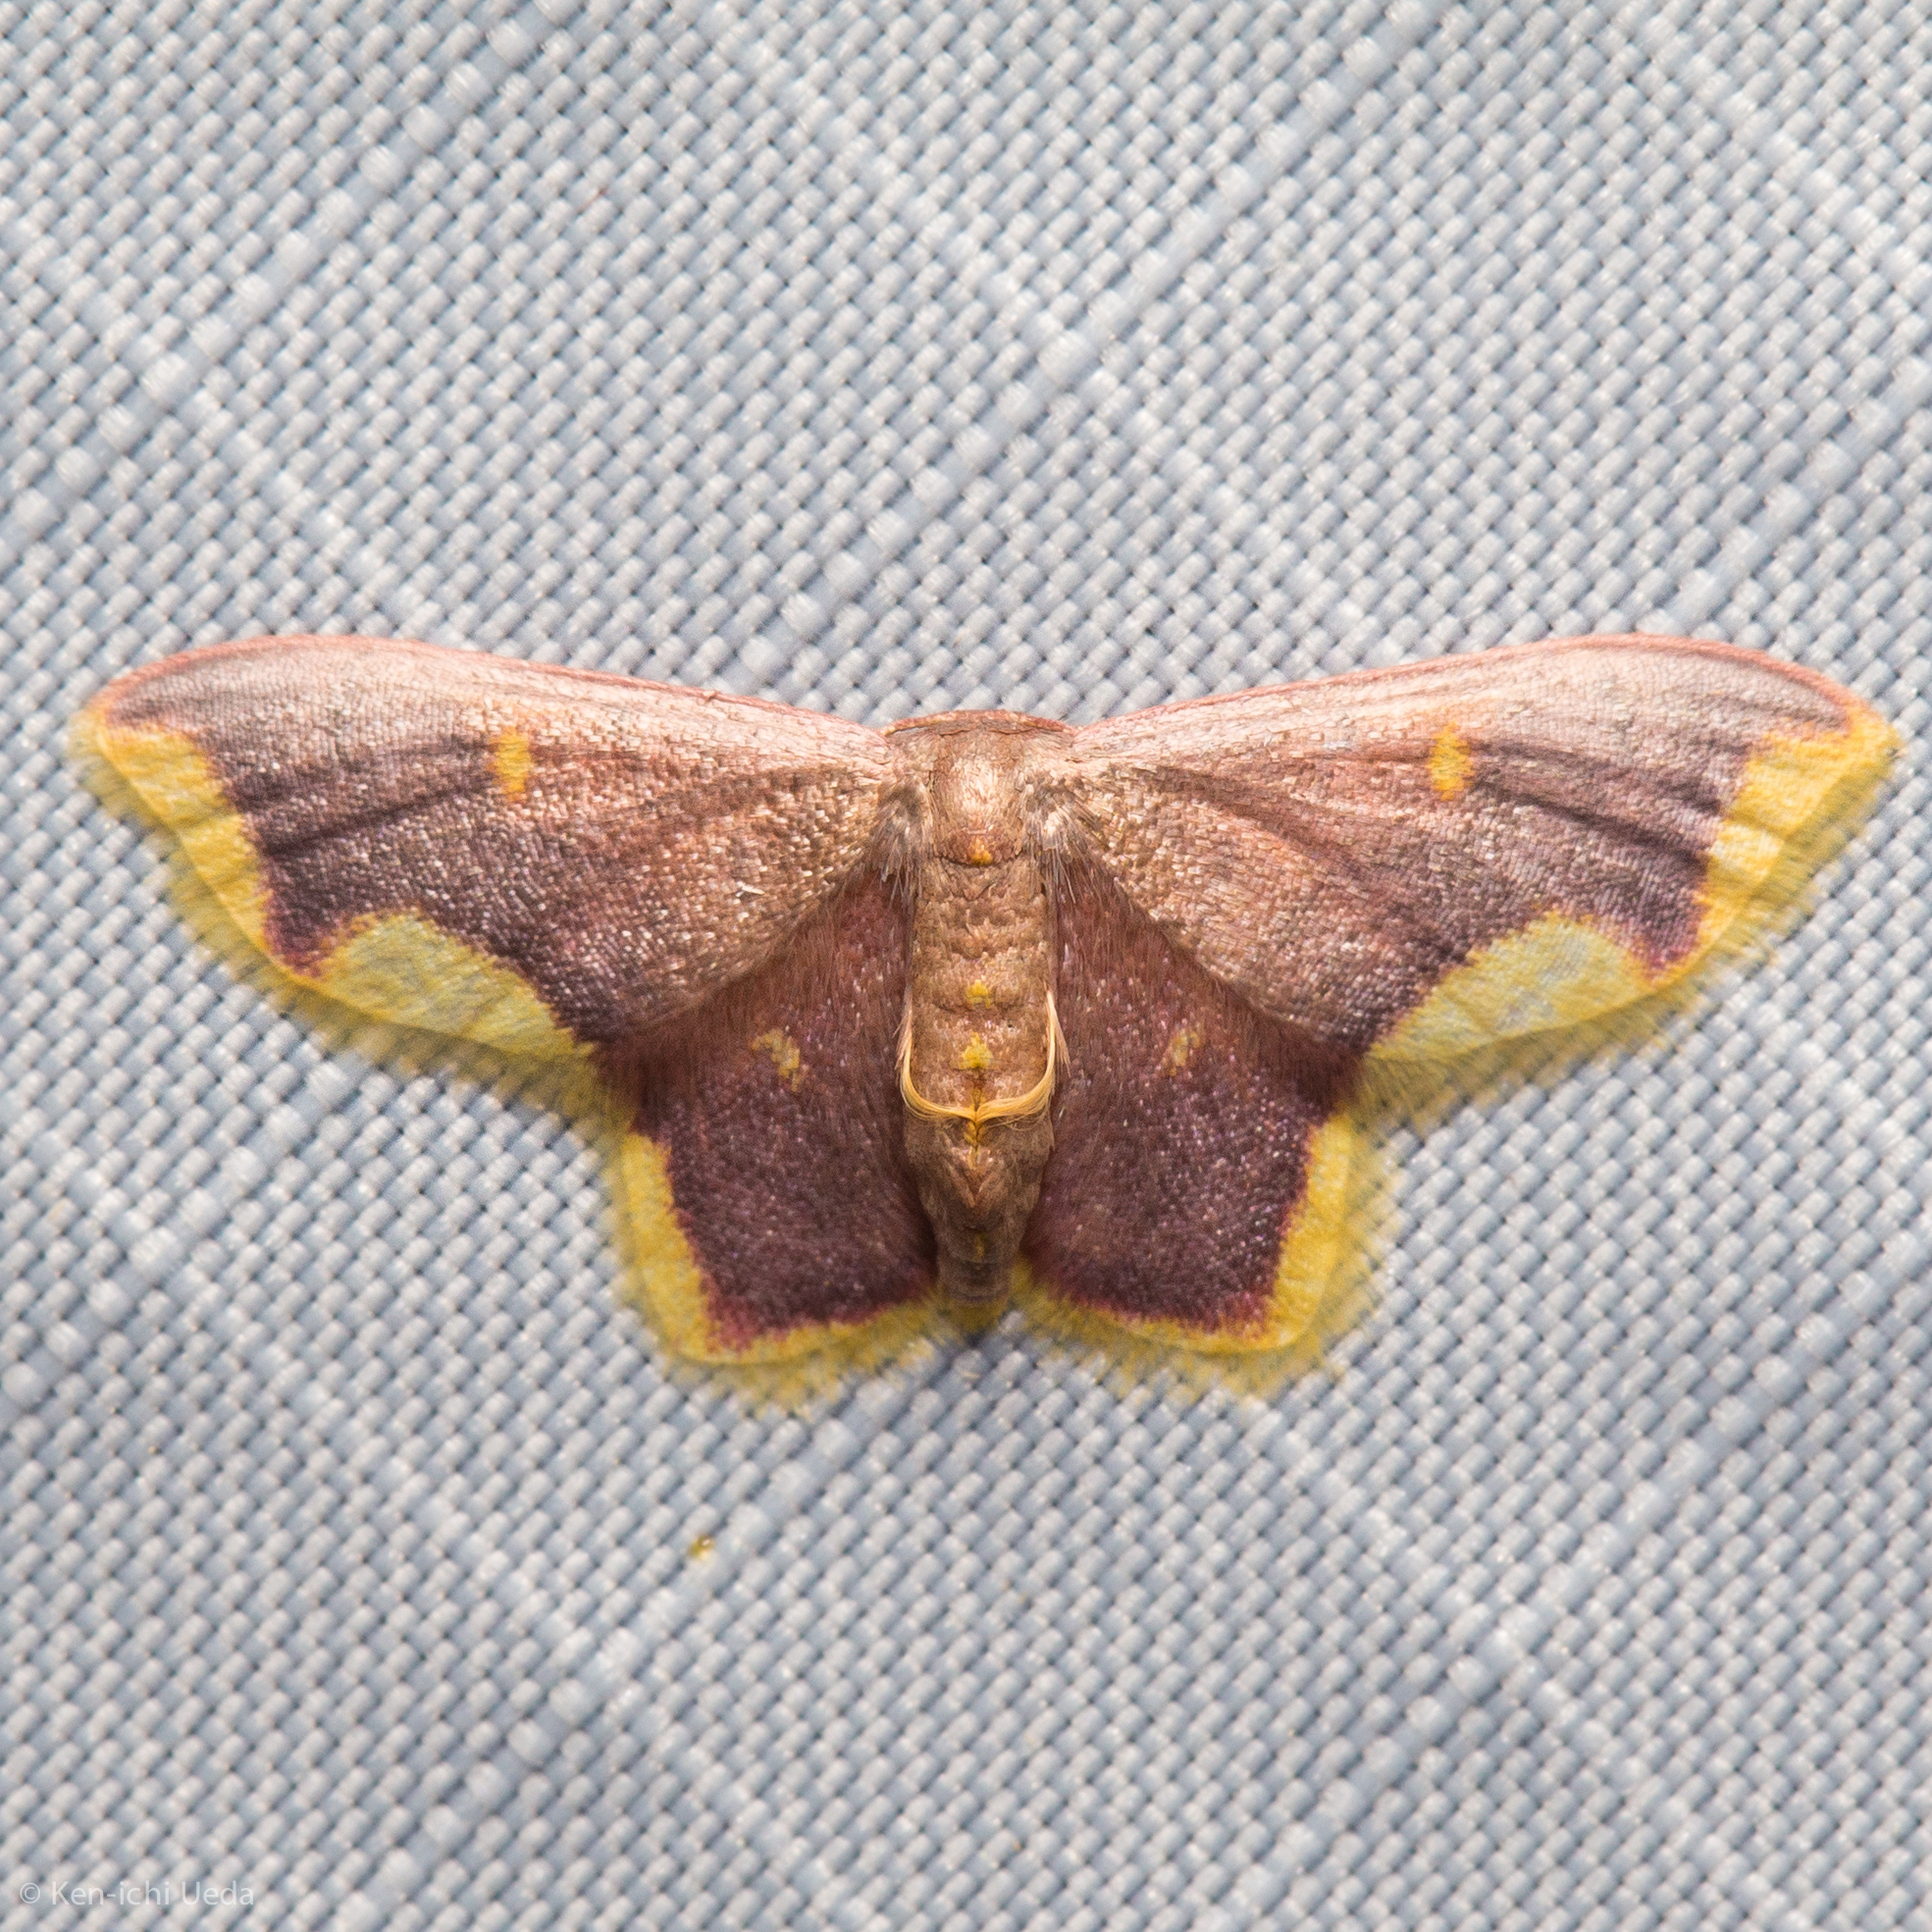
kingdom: Animalia
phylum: Arthropoda
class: Insecta
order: Lepidoptera
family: Geometridae
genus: Lophosis
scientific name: Lophosis labeculata
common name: Stained lophosis moth
